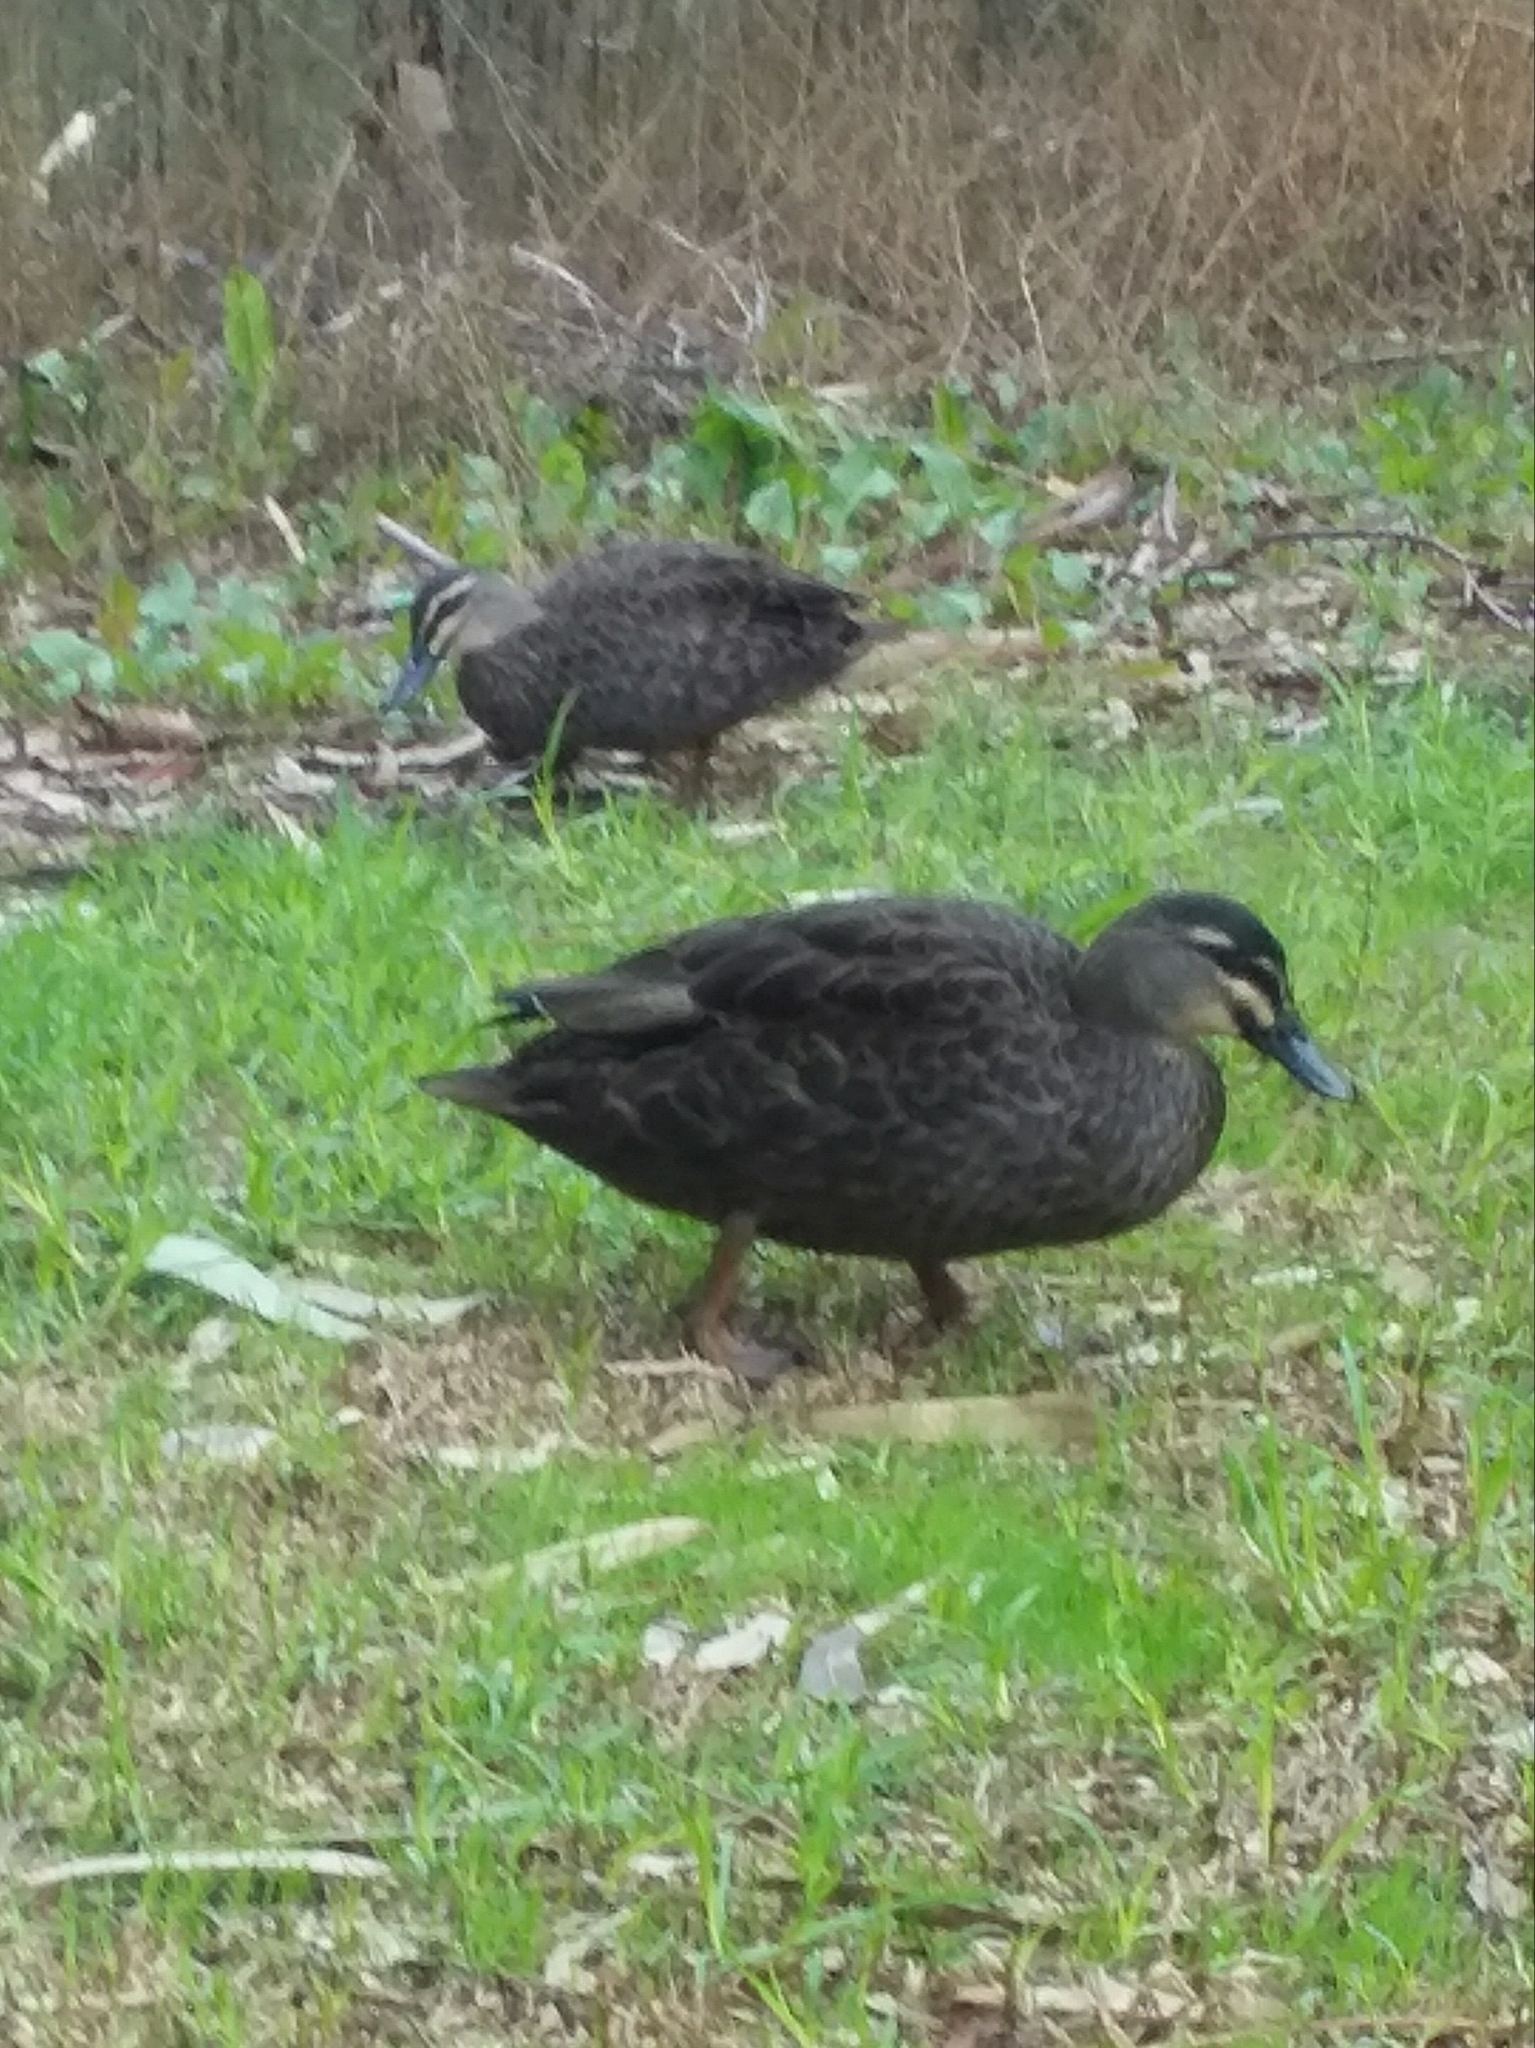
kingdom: Animalia
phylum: Chordata
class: Aves
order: Anseriformes
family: Anatidae
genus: Anas
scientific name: Anas
